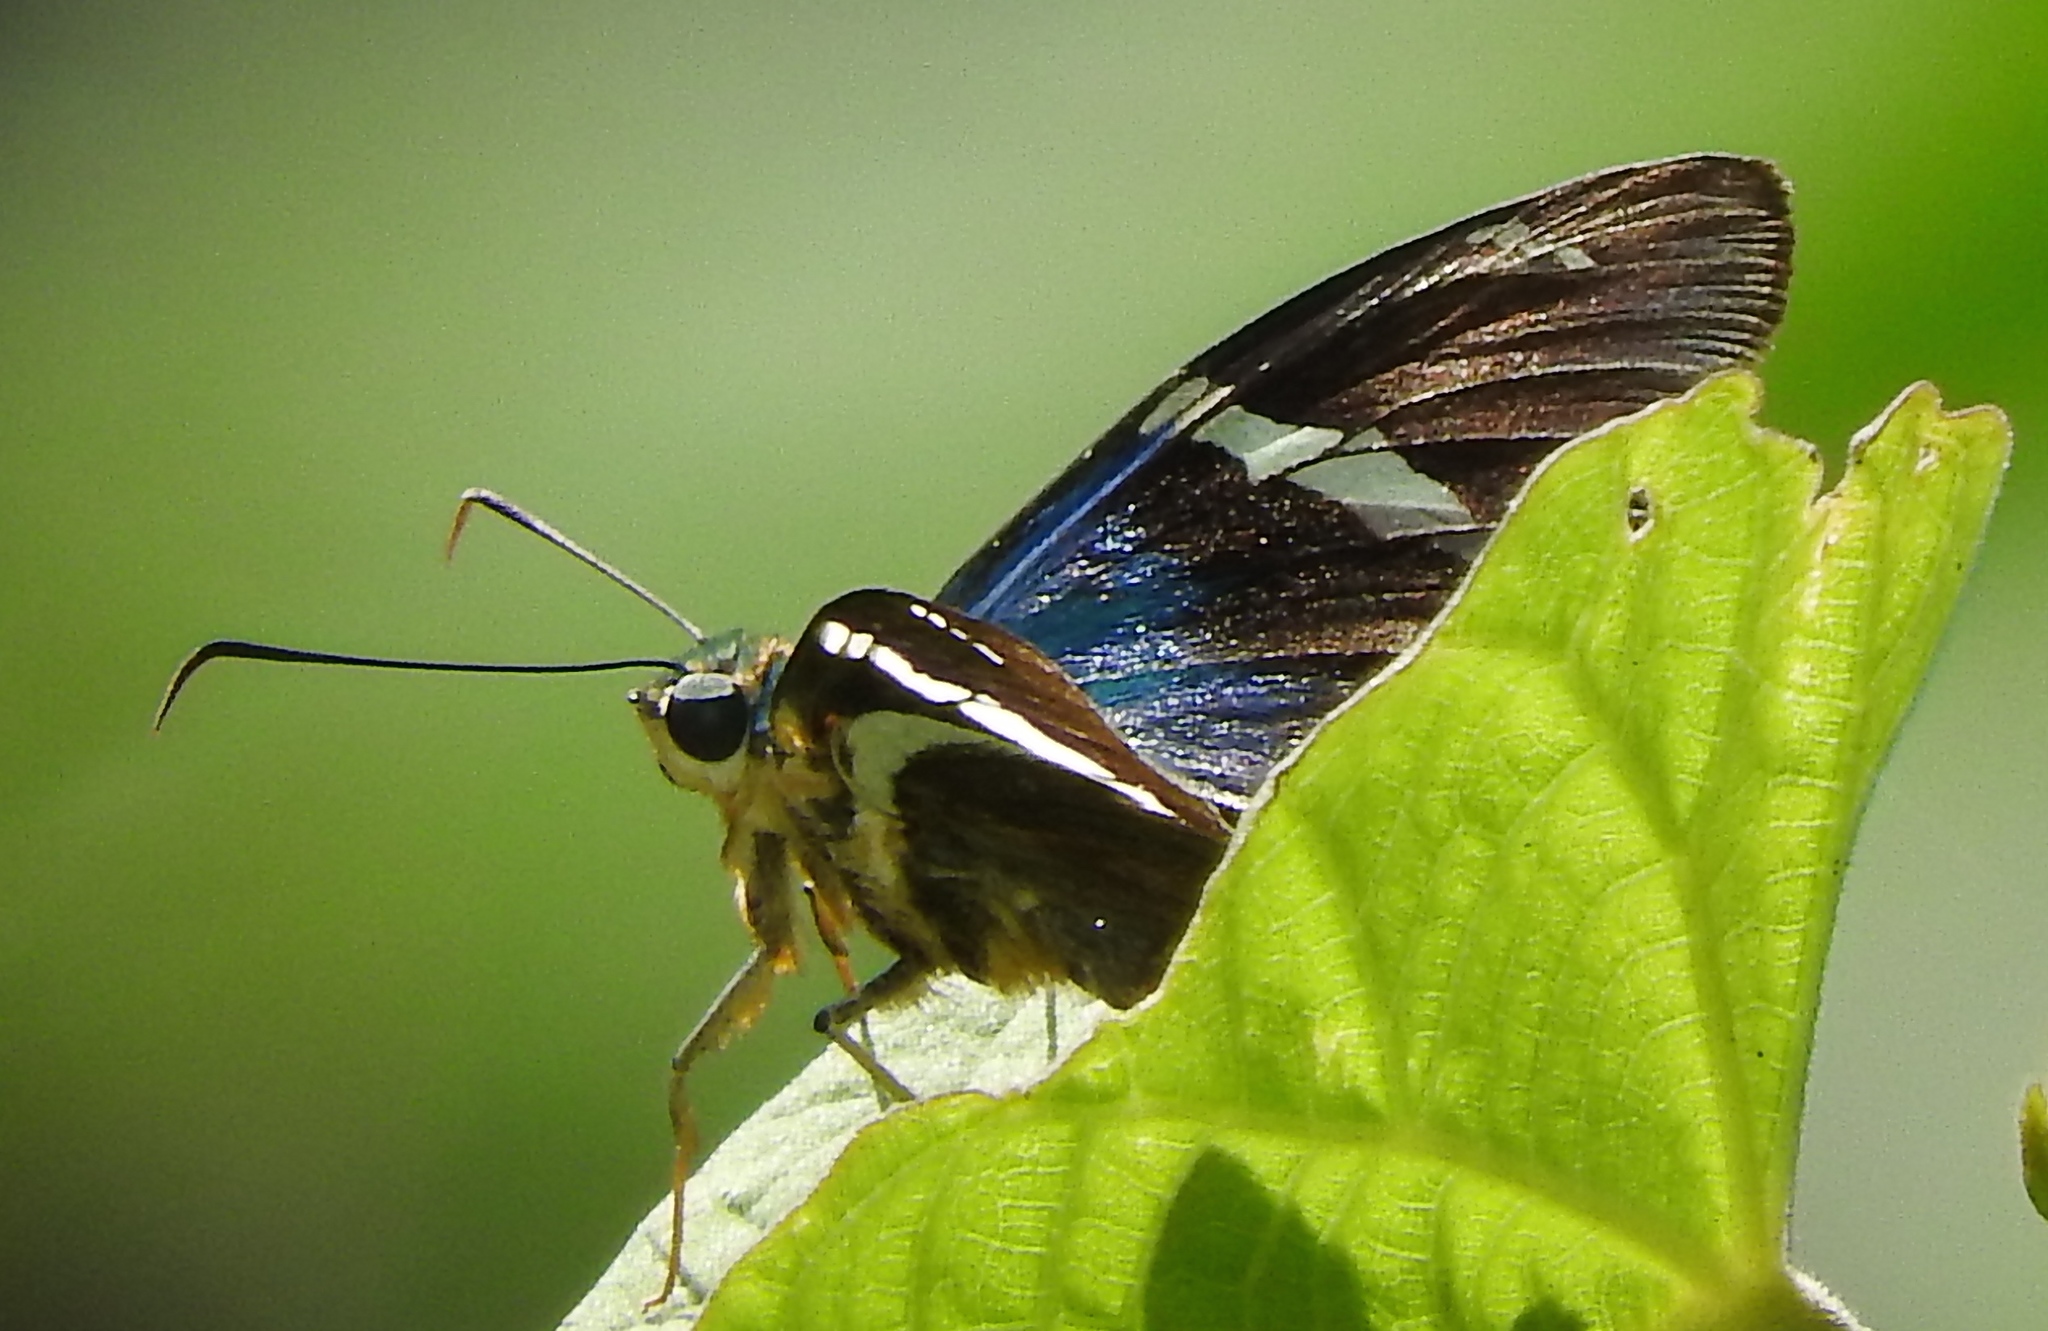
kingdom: Animalia
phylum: Arthropoda
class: Insecta
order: Lepidoptera
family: Hesperiidae
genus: Astraptes
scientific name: Astraptes
